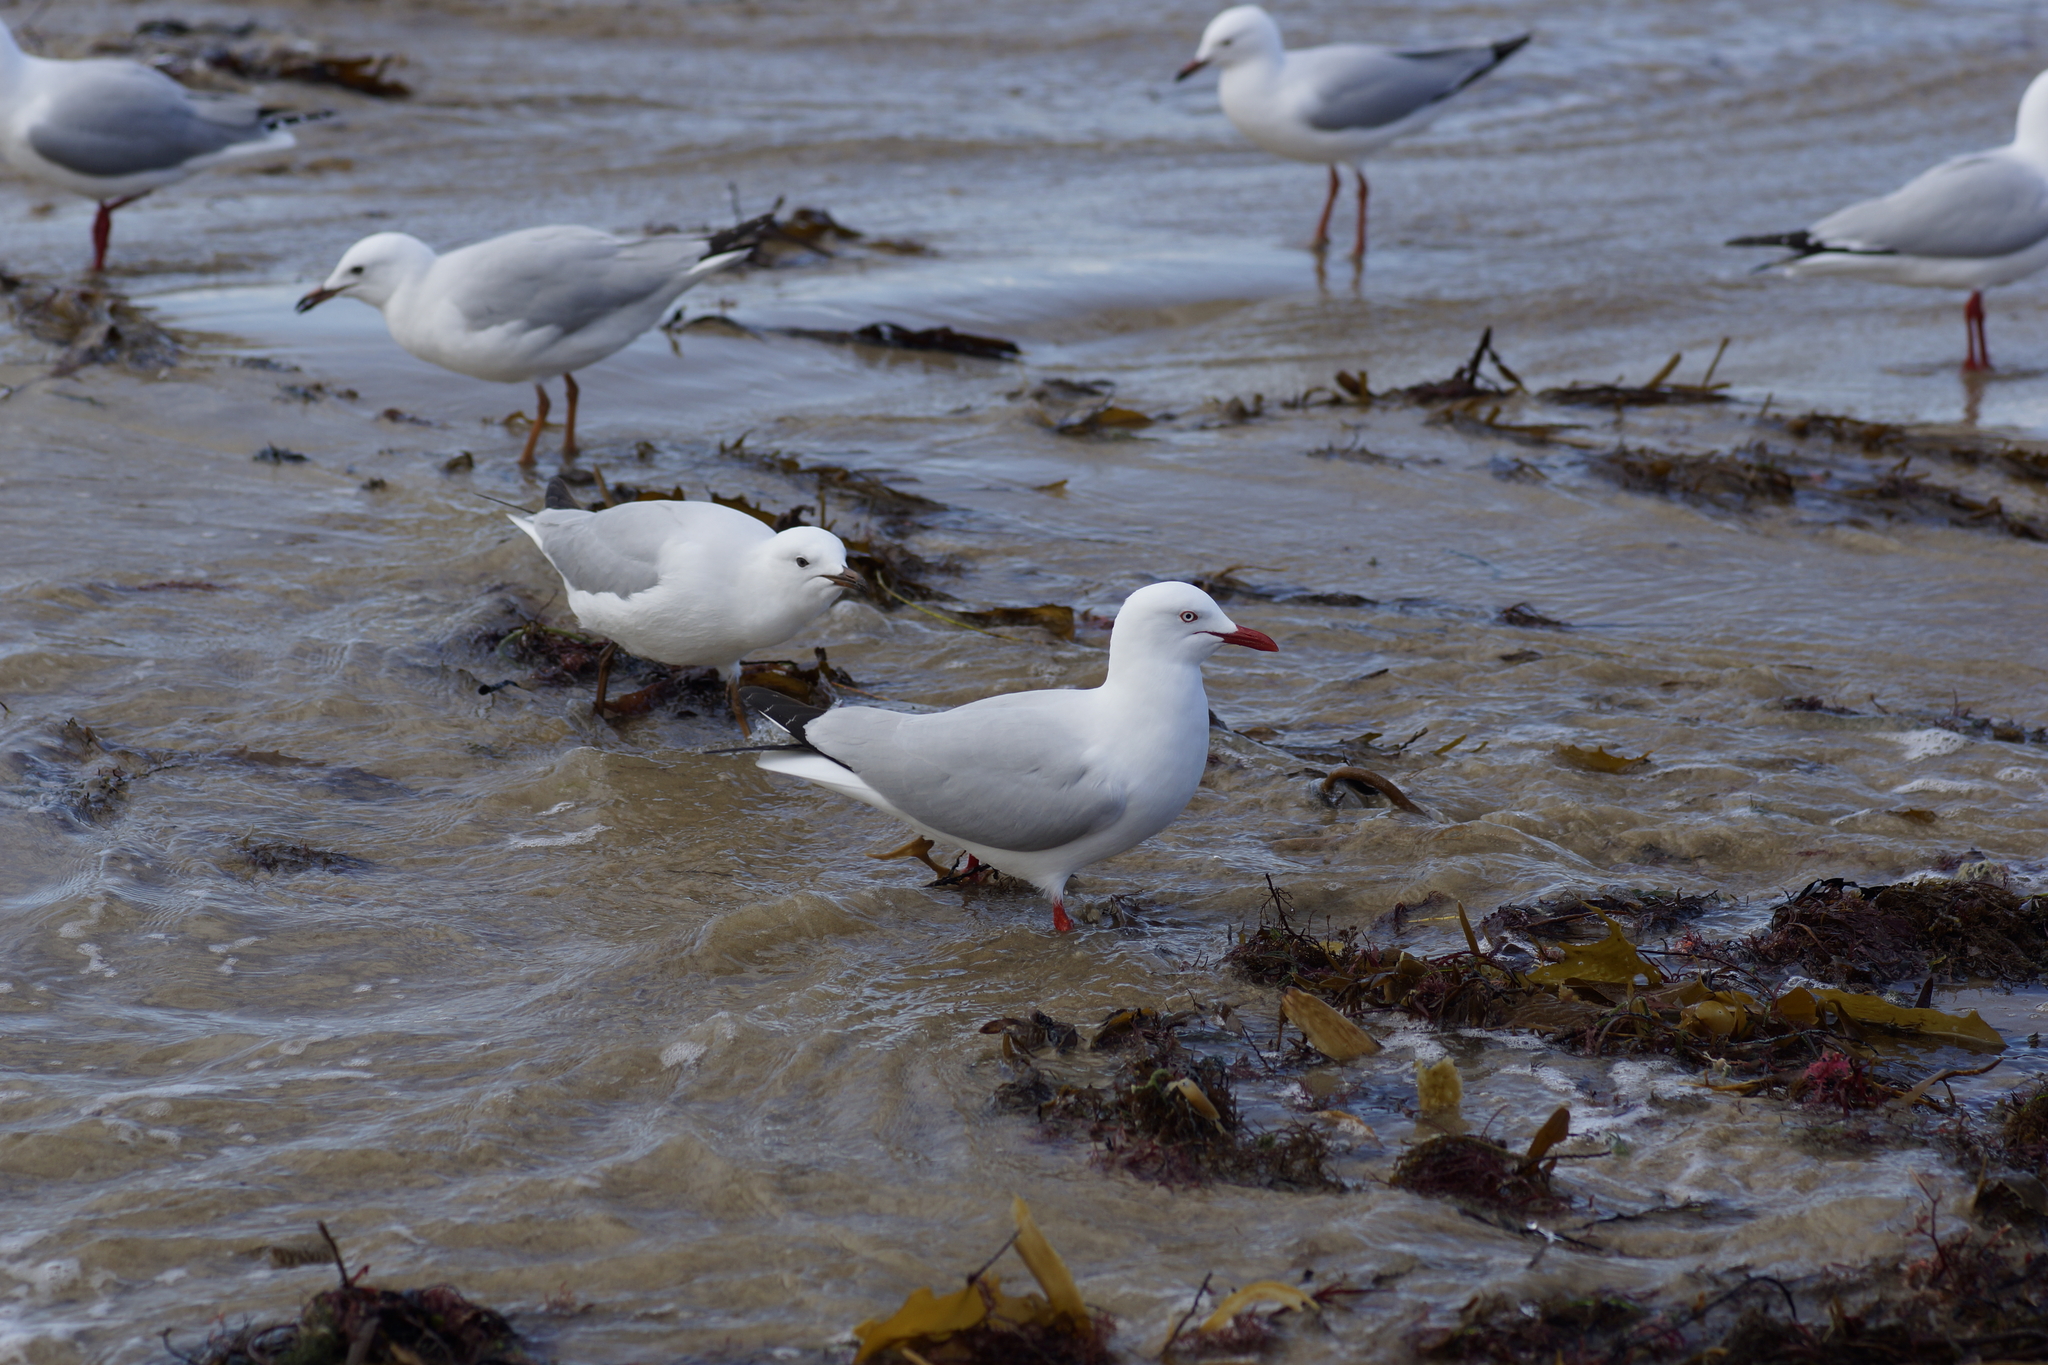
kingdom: Animalia
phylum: Chordata
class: Aves
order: Charadriiformes
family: Laridae
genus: Chroicocephalus
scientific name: Chroicocephalus novaehollandiae
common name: Silver gull
